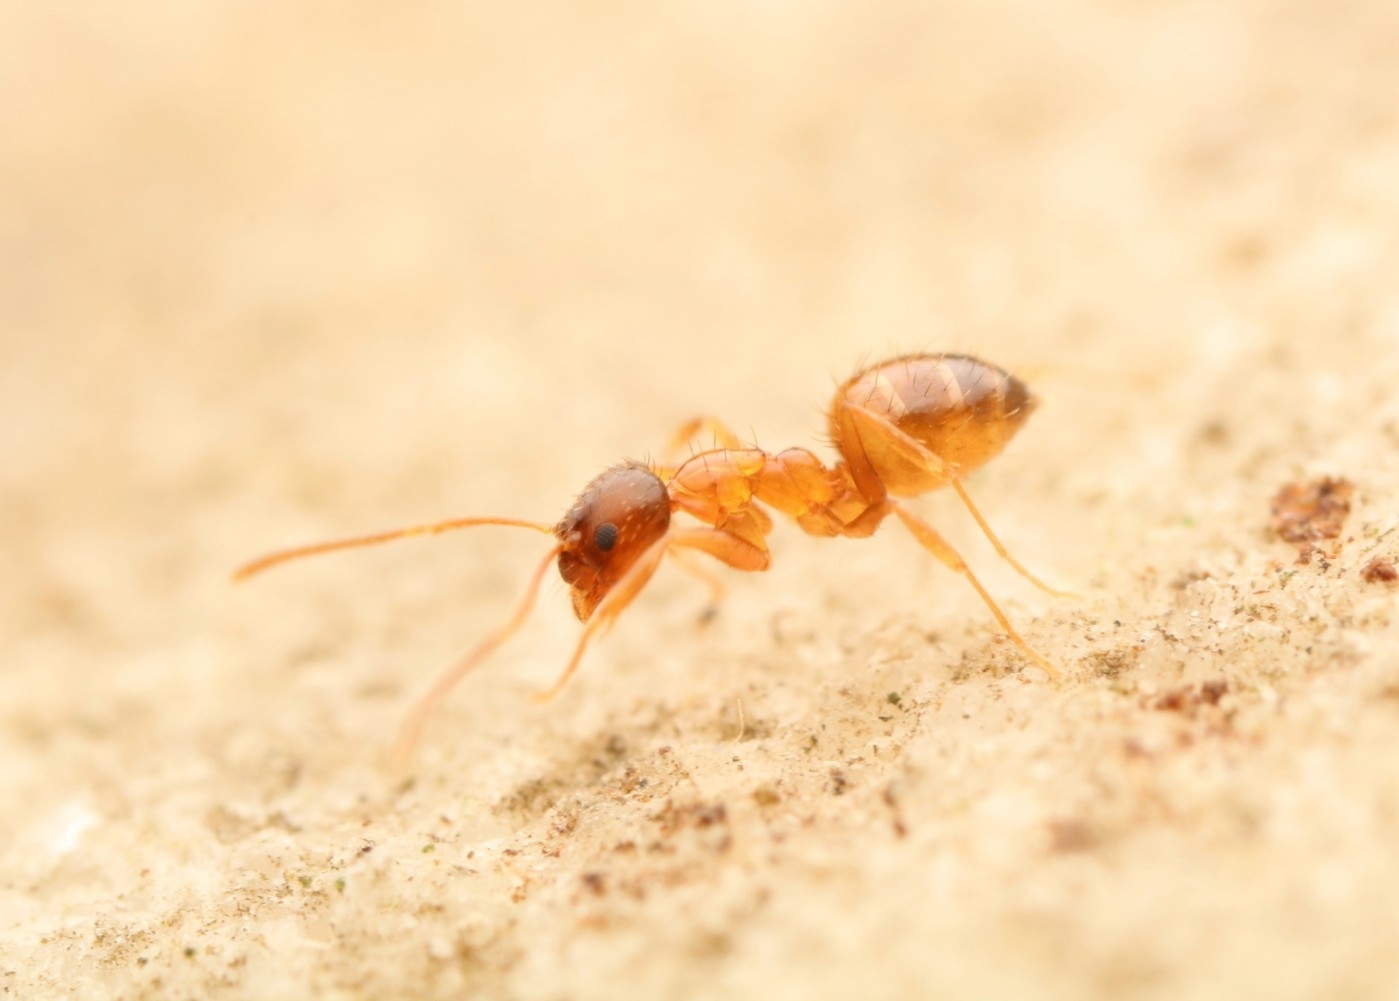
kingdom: Animalia
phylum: Arthropoda
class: Insecta
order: Hymenoptera
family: Formicidae
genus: Paratrechina
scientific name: Paratrechina flavipes
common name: Eastern asian formicine ant
